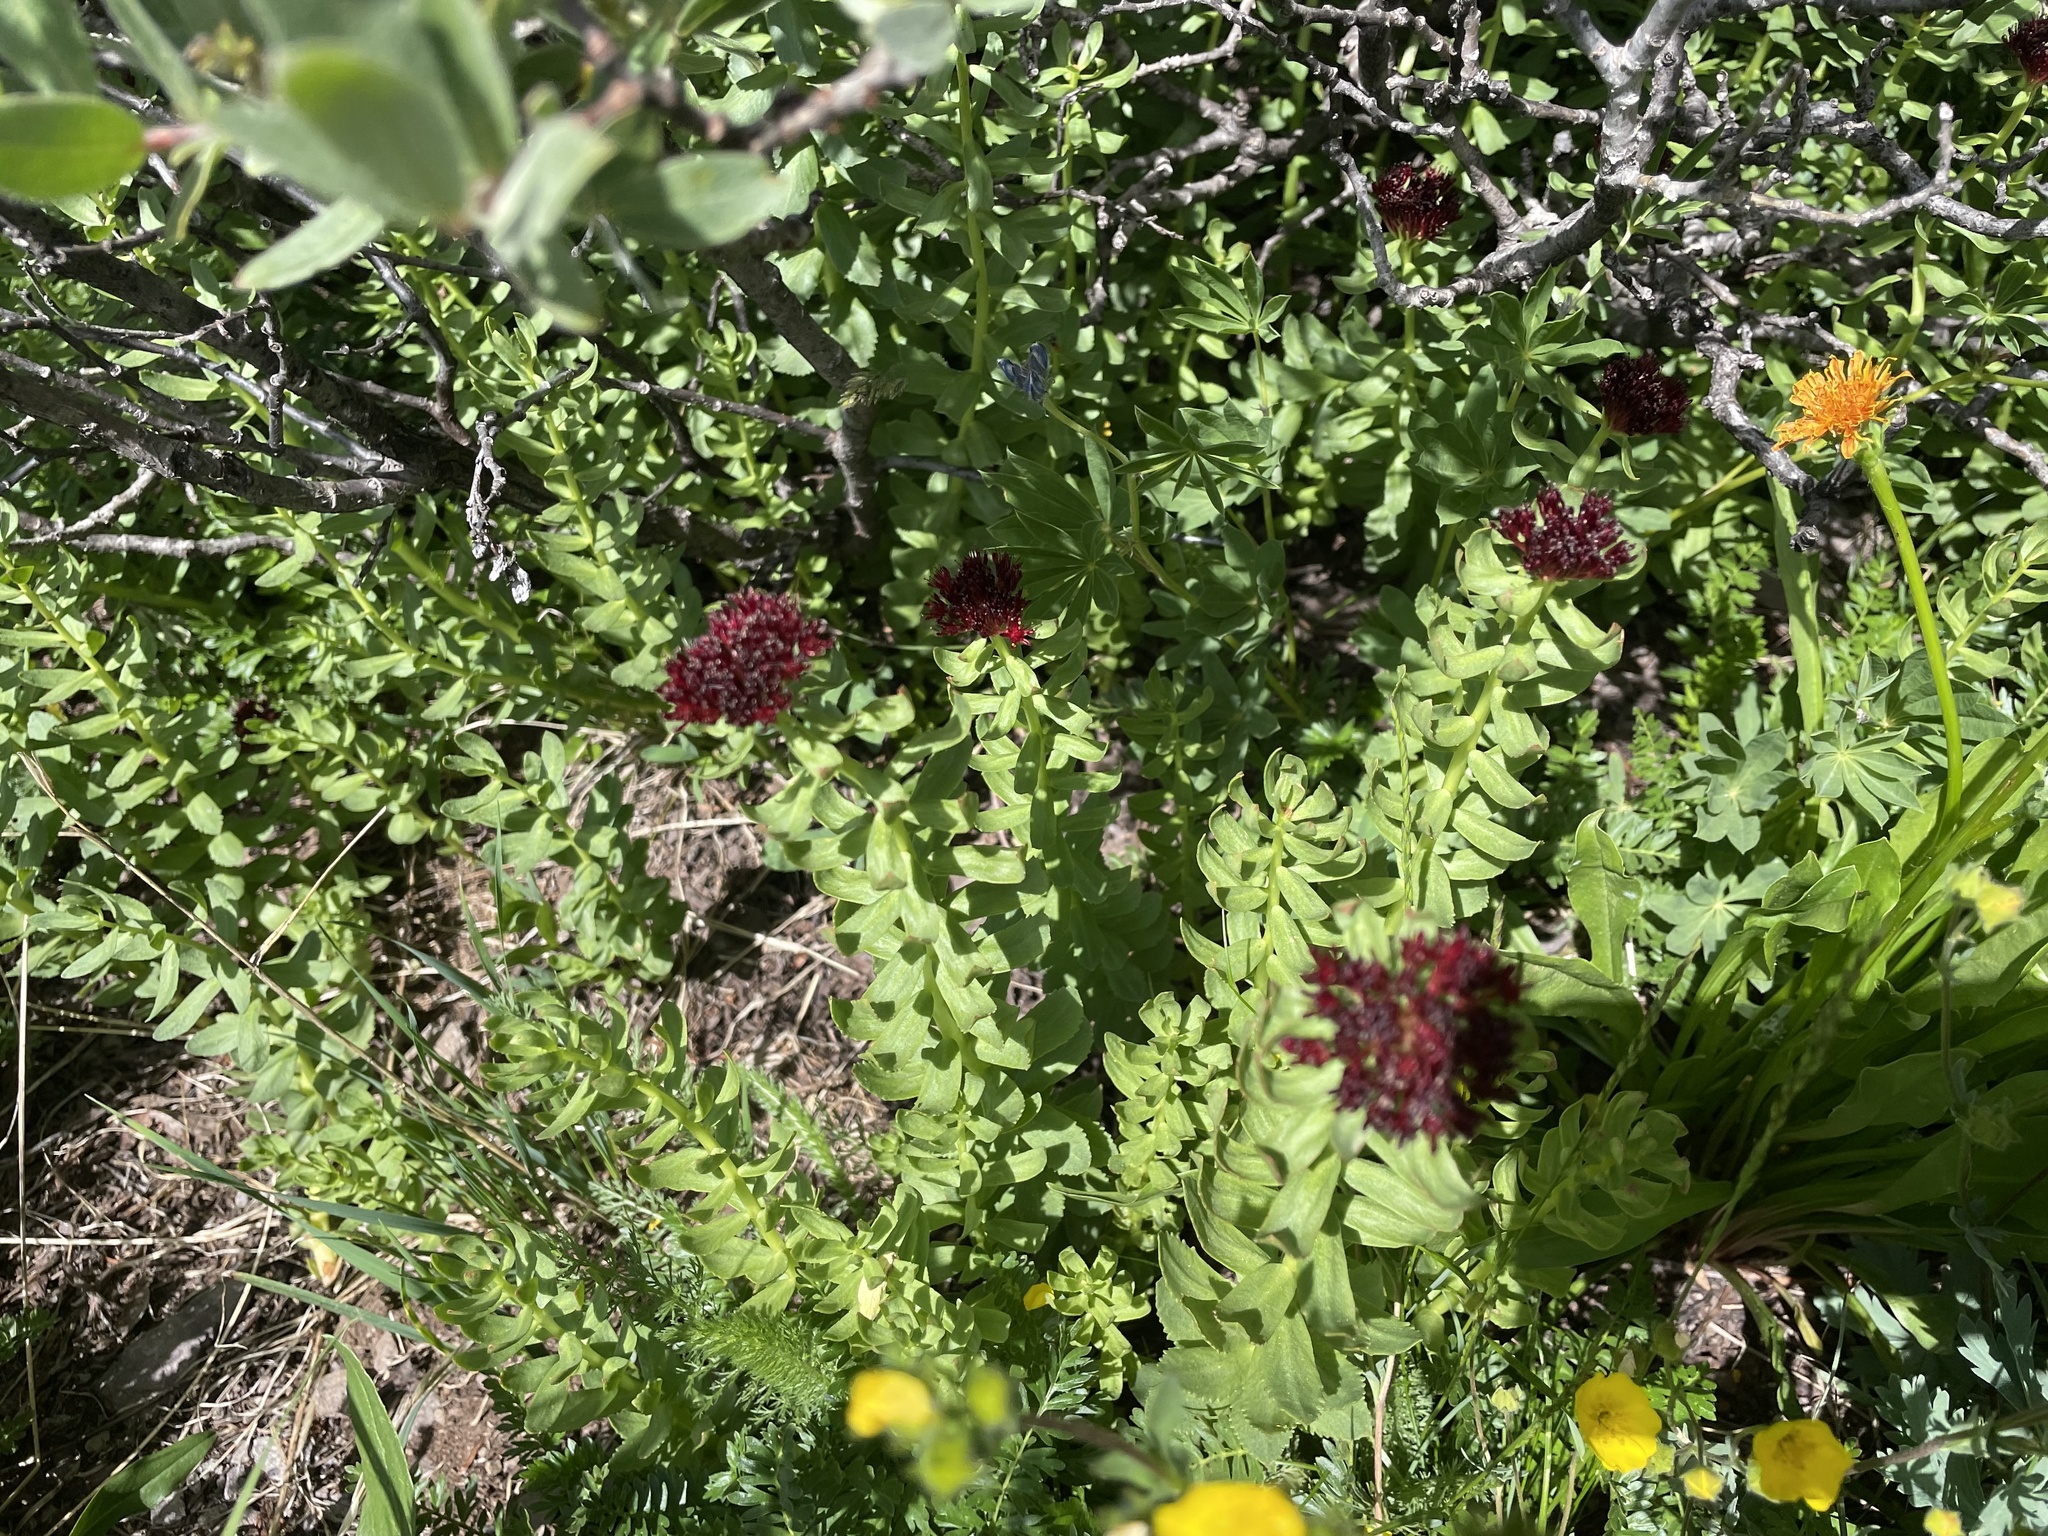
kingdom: Plantae
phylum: Tracheophyta
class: Magnoliopsida
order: Saxifragales
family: Crassulaceae
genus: Rhodiola
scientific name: Rhodiola integrifolia
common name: Western roseroot
